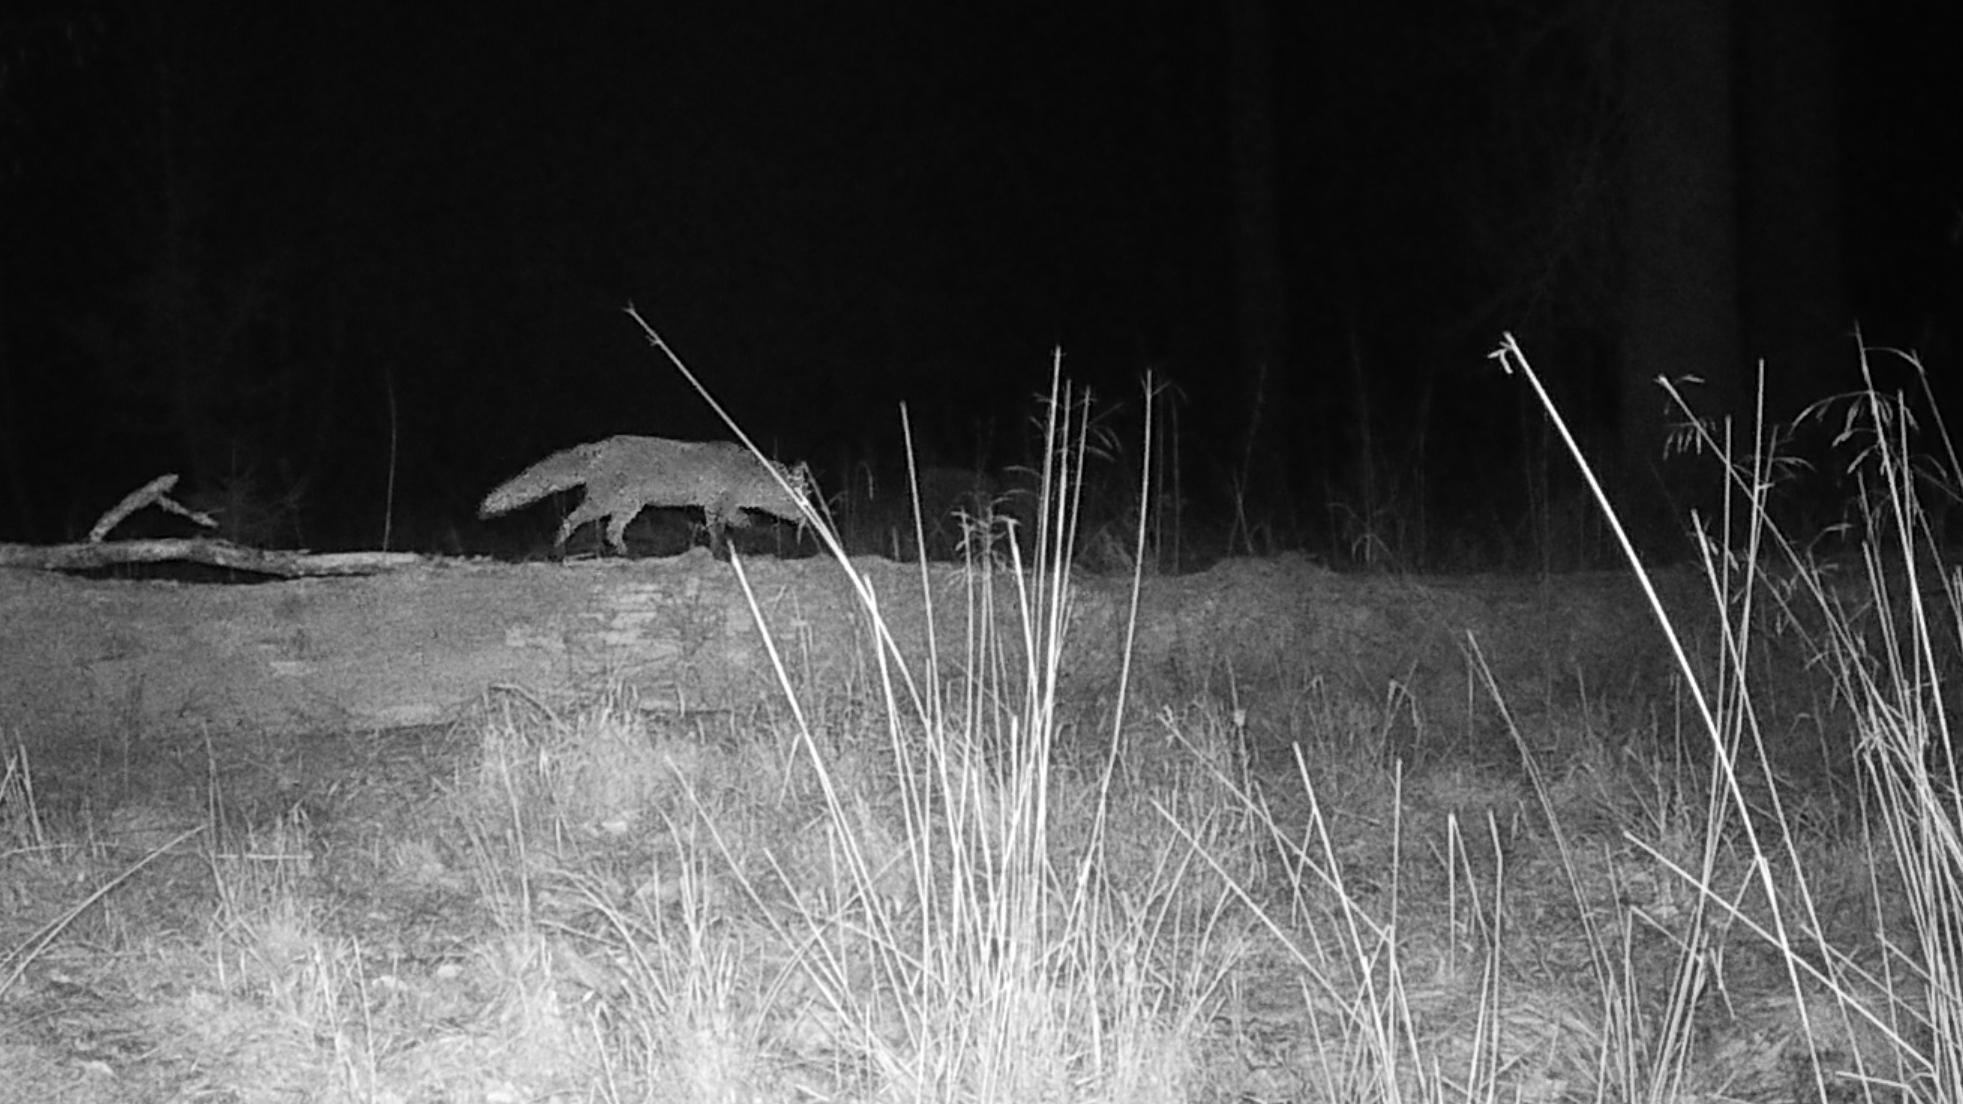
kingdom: Animalia
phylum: Chordata
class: Mammalia
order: Carnivora
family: Canidae
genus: Vulpes
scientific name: Vulpes vulpes
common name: Red fox
